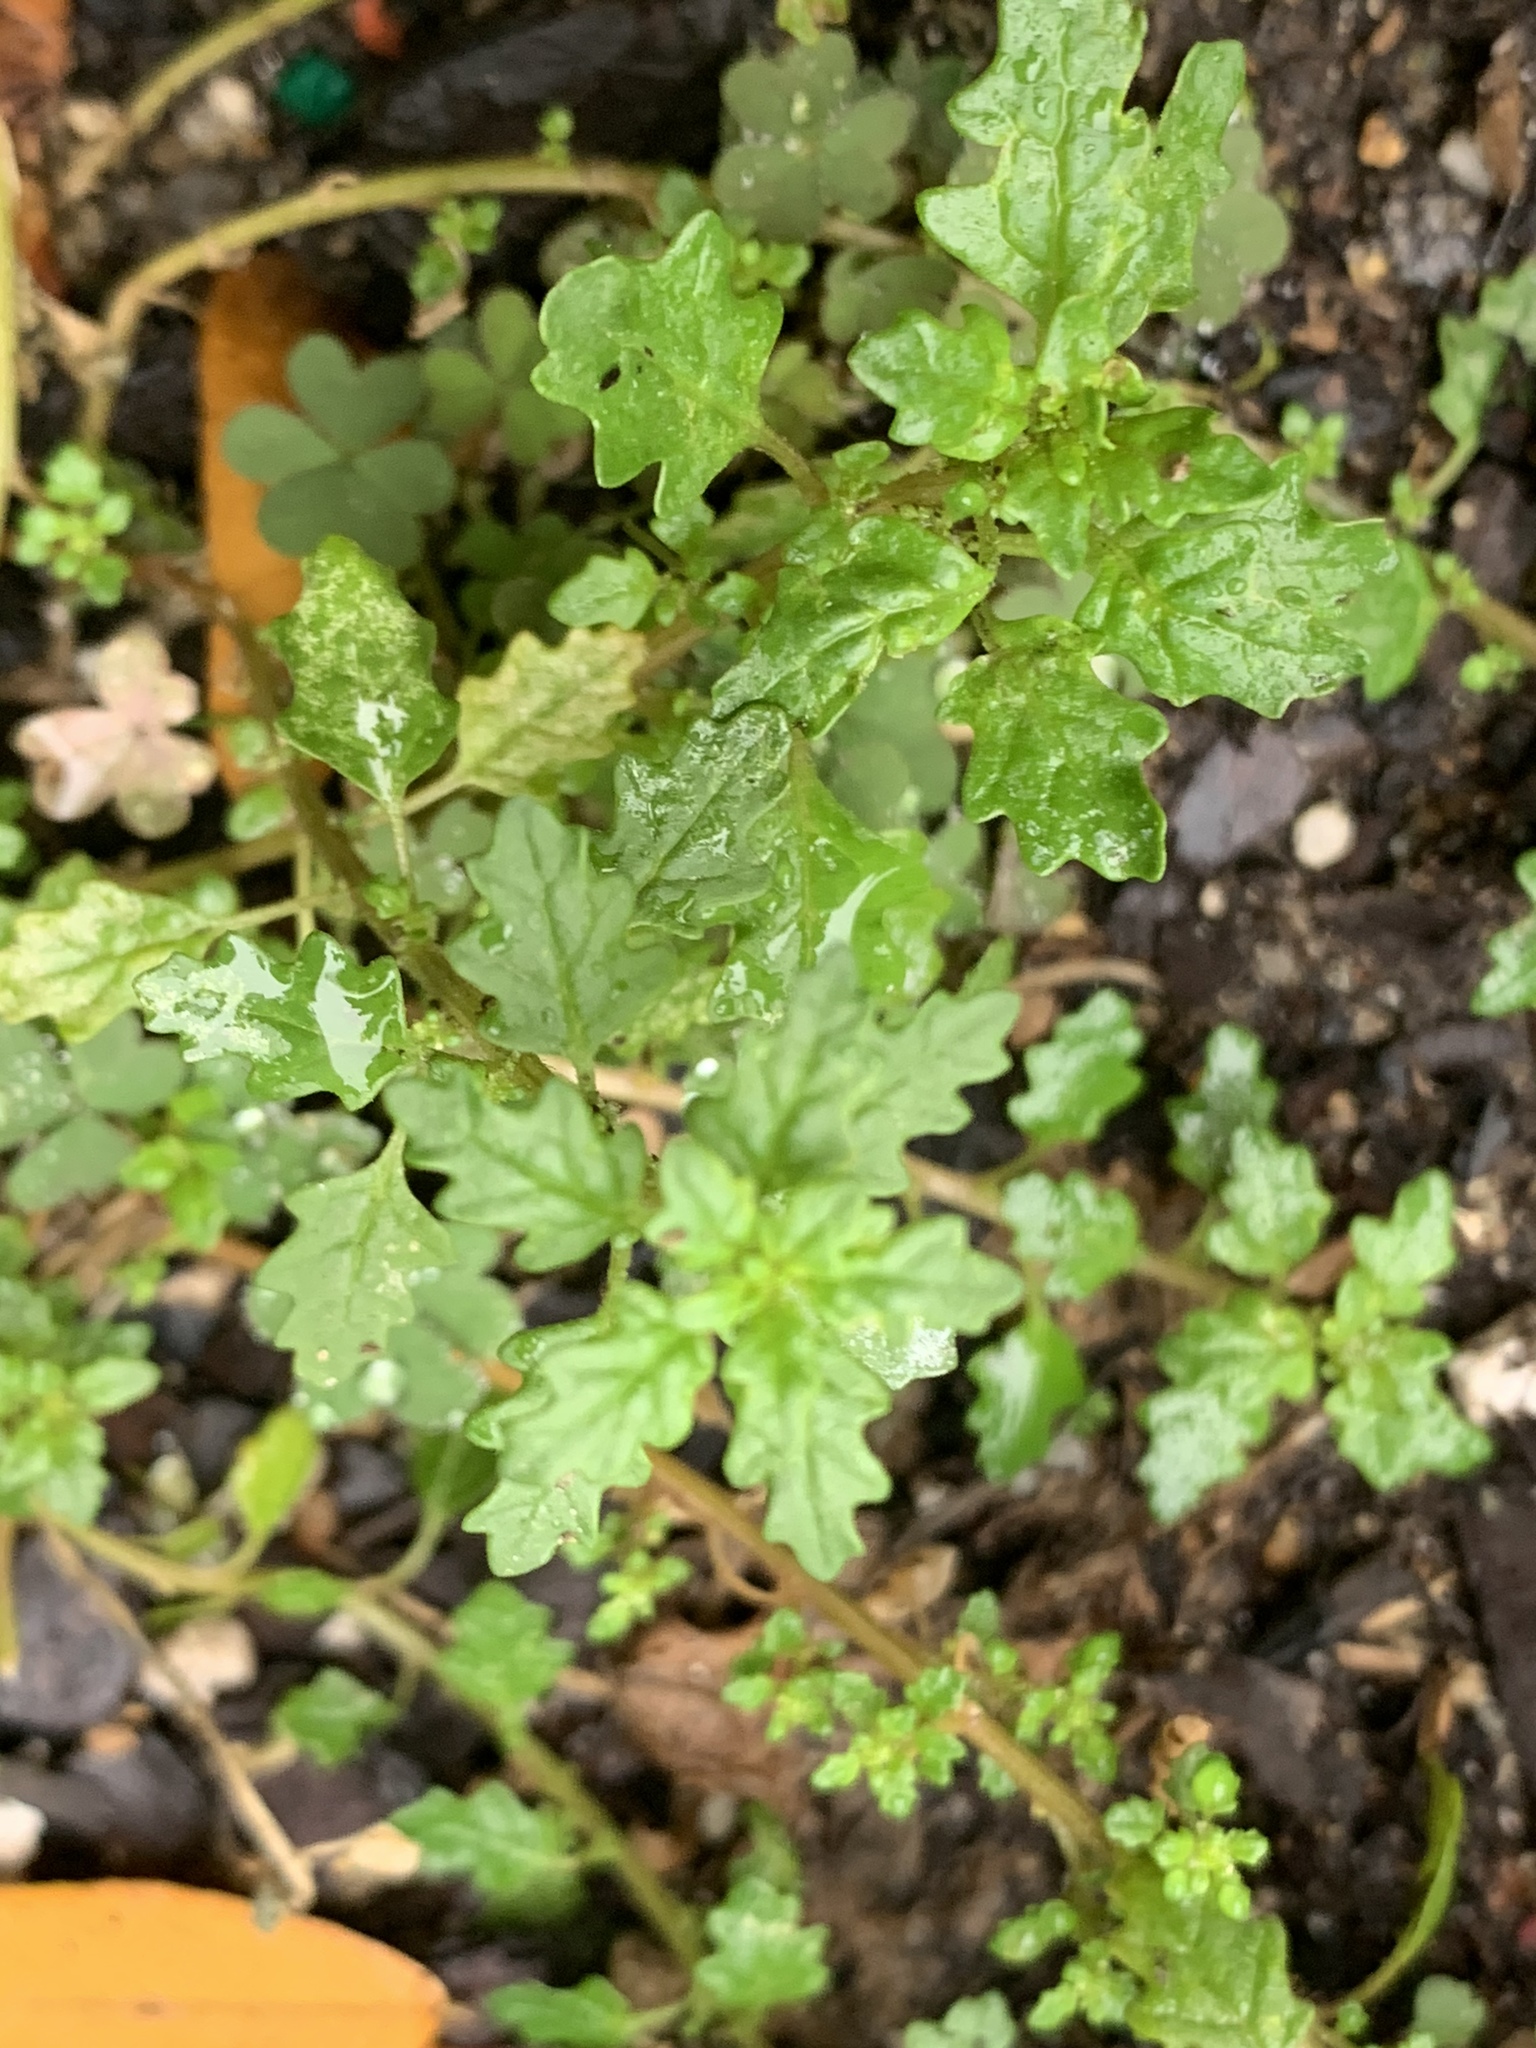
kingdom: Plantae
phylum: Tracheophyta
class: Magnoliopsida
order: Caryophyllales
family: Amaranthaceae
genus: Dysphania
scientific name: Dysphania pumilio
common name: Clammy goosefoot
